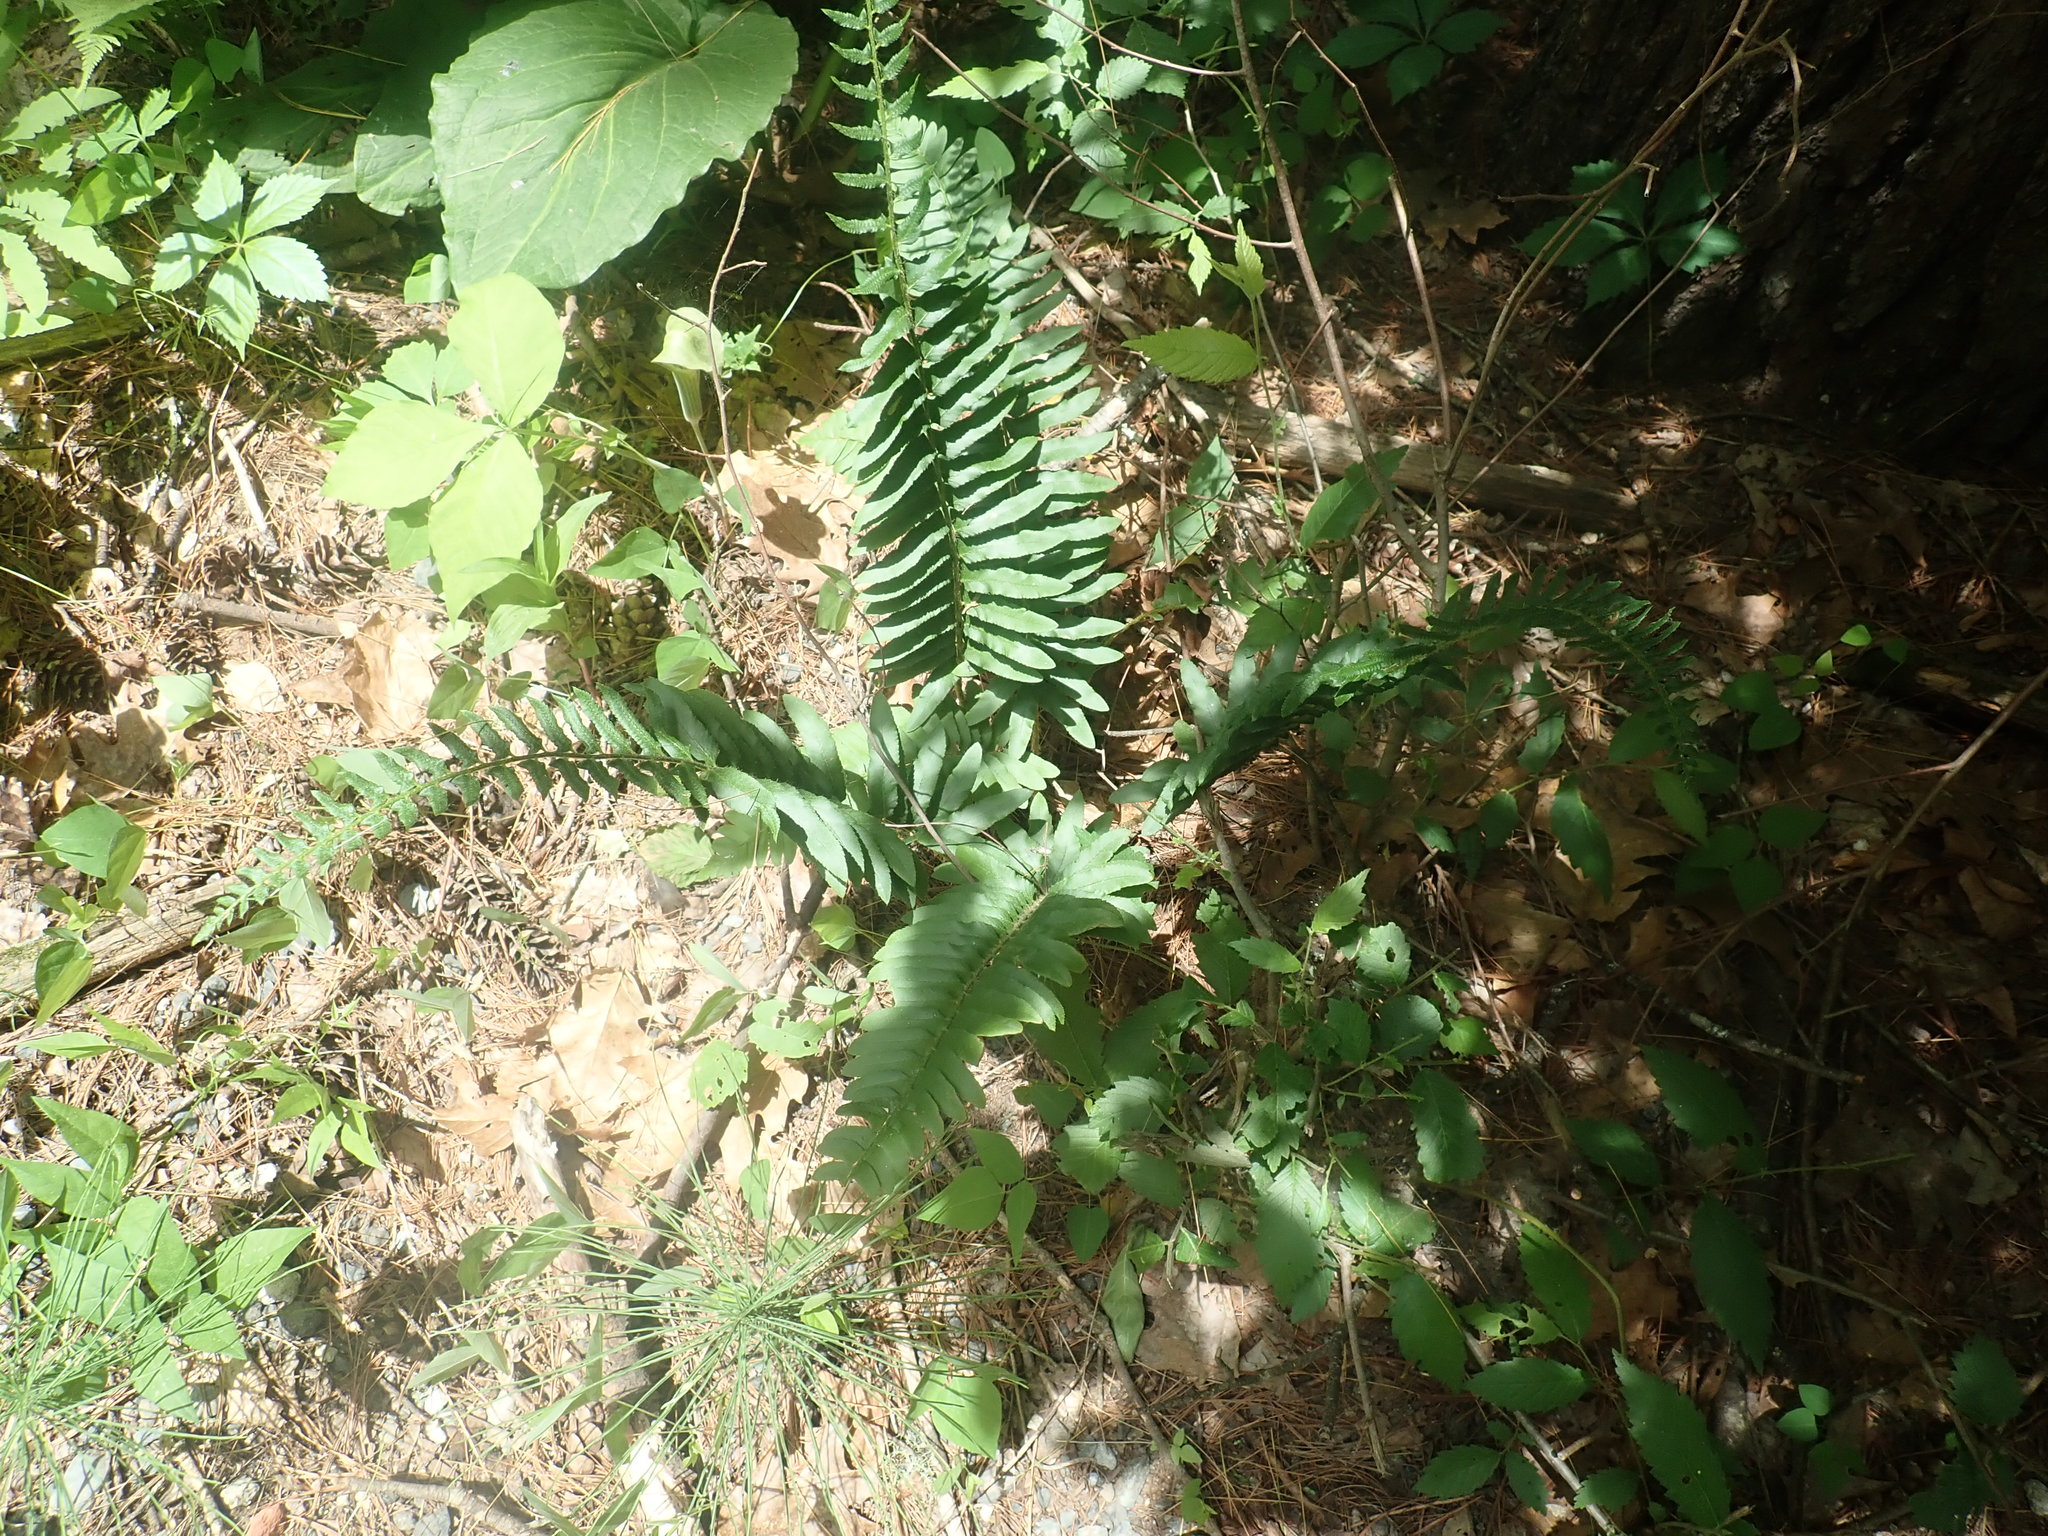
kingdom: Plantae
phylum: Tracheophyta
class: Polypodiopsida
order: Polypodiales
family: Dryopteridaceae
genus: Polystichum
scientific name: Polystichum acrostichoides
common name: Christmas fern
